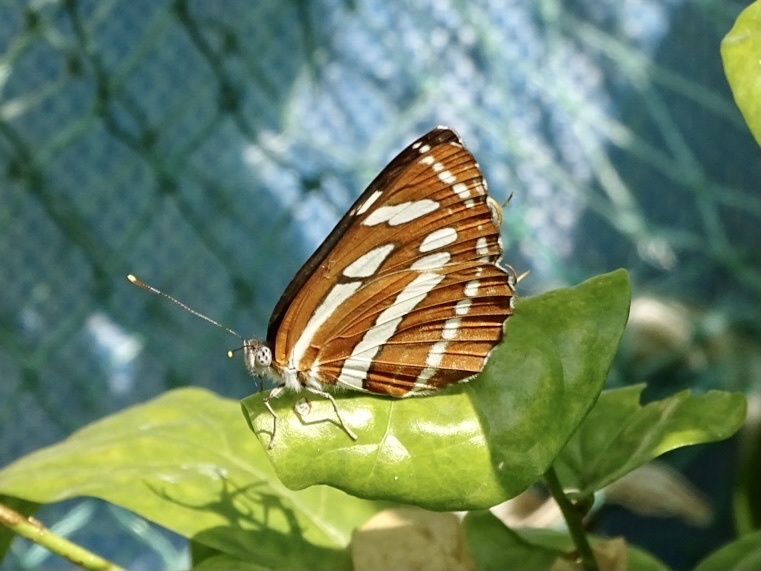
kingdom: Animalia
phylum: Arthropoda
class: Insecta
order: Lepidoptera
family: Nymphalidae
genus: Neptis
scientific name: Neptis hylas
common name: Common sailer
